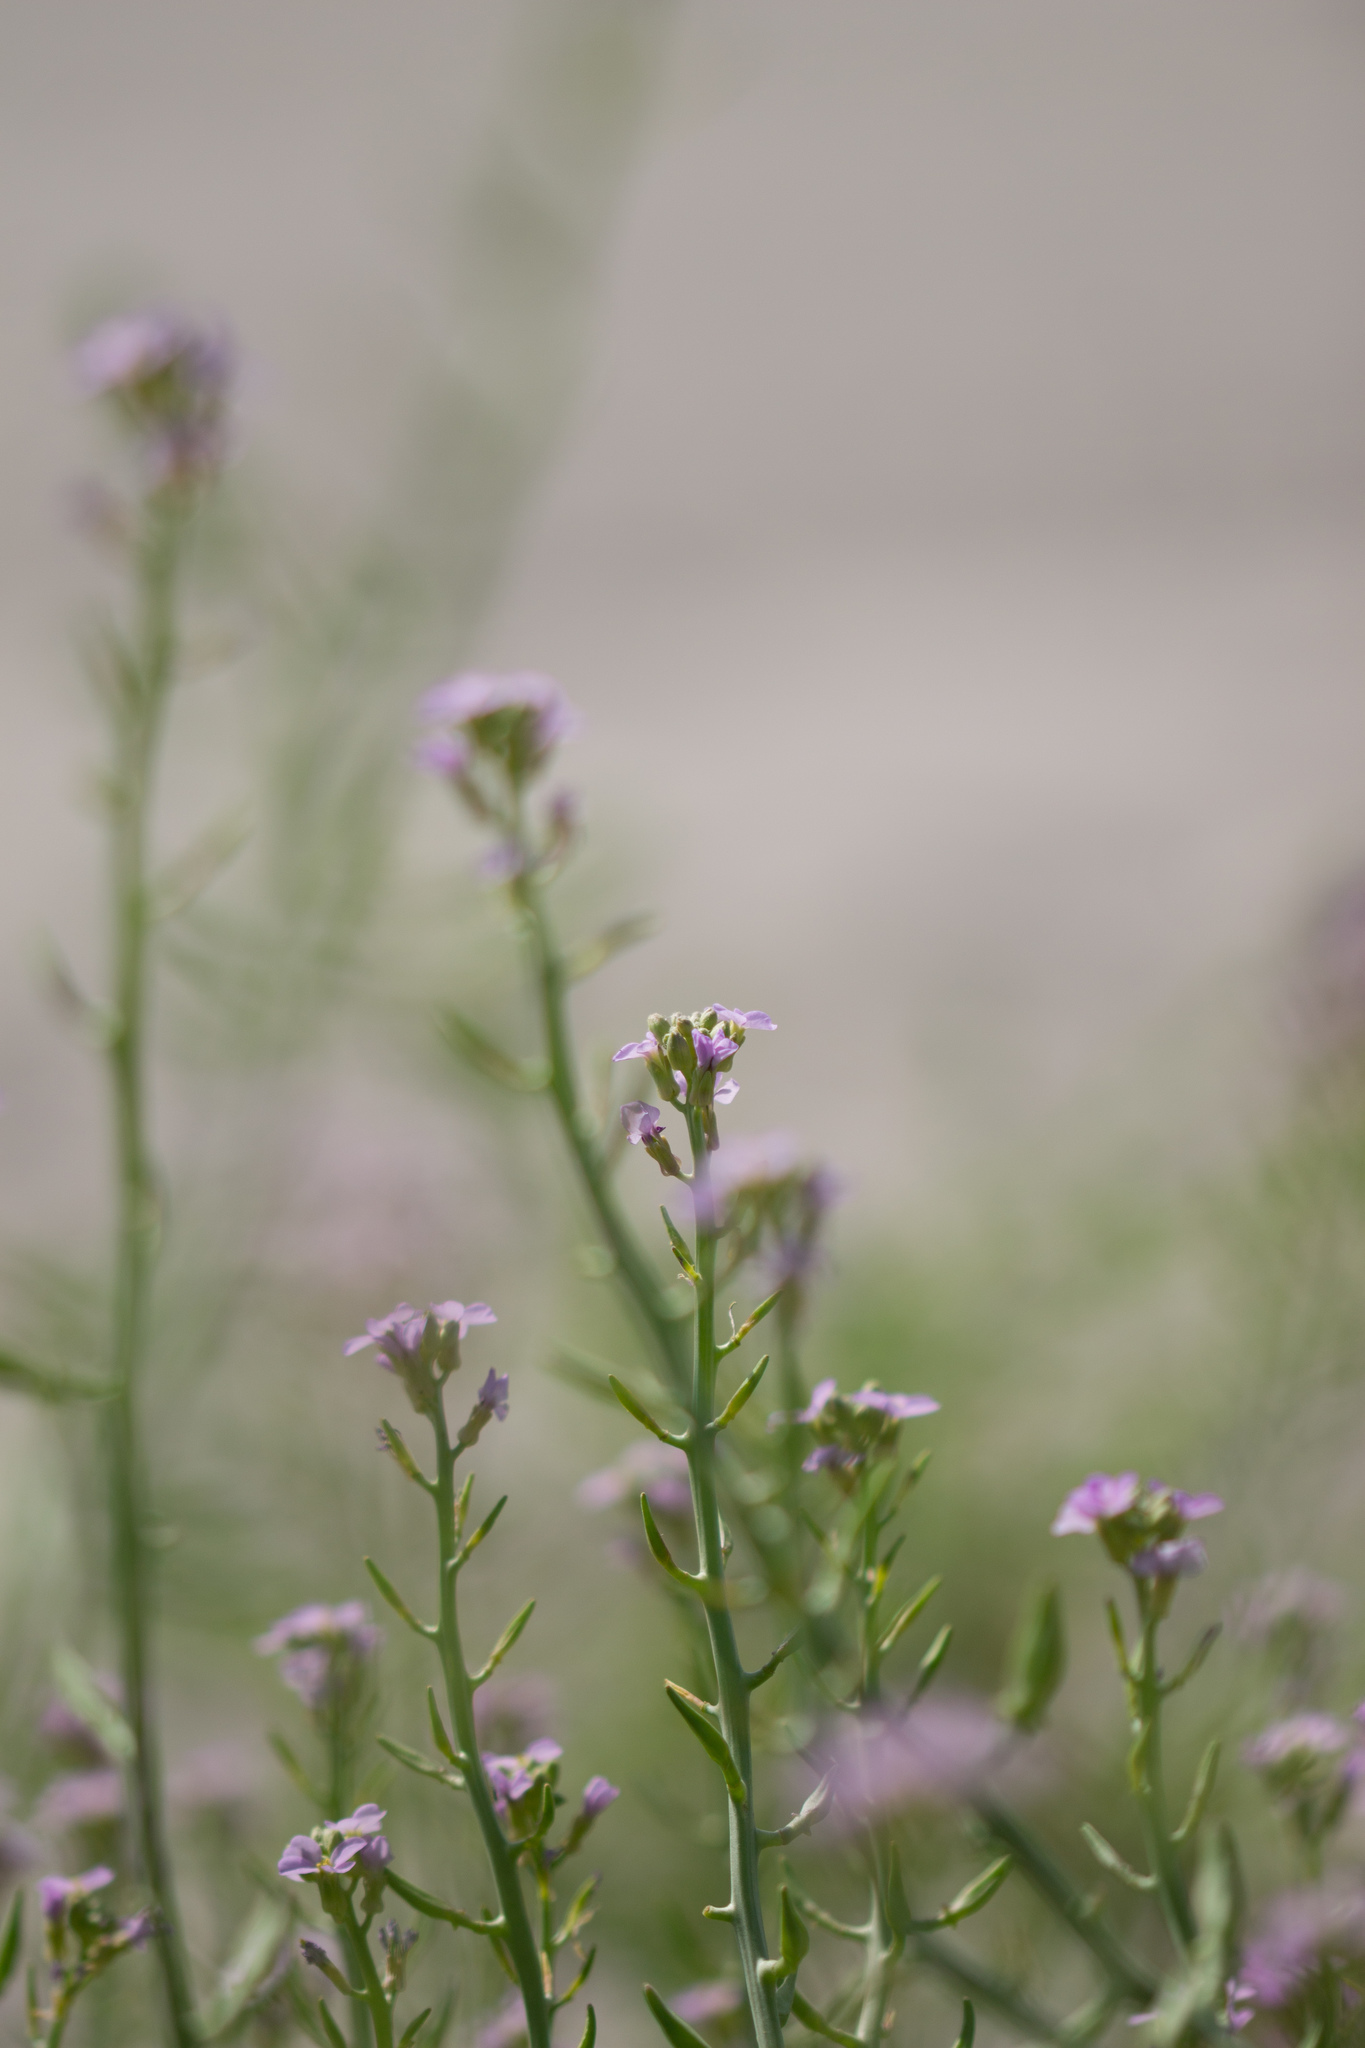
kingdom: Plantae
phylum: Tracheophyta
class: Magnoliopsida
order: Brassicales
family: Brassicaceae
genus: Cakile
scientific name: Cakile maritima
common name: Sea rocket
